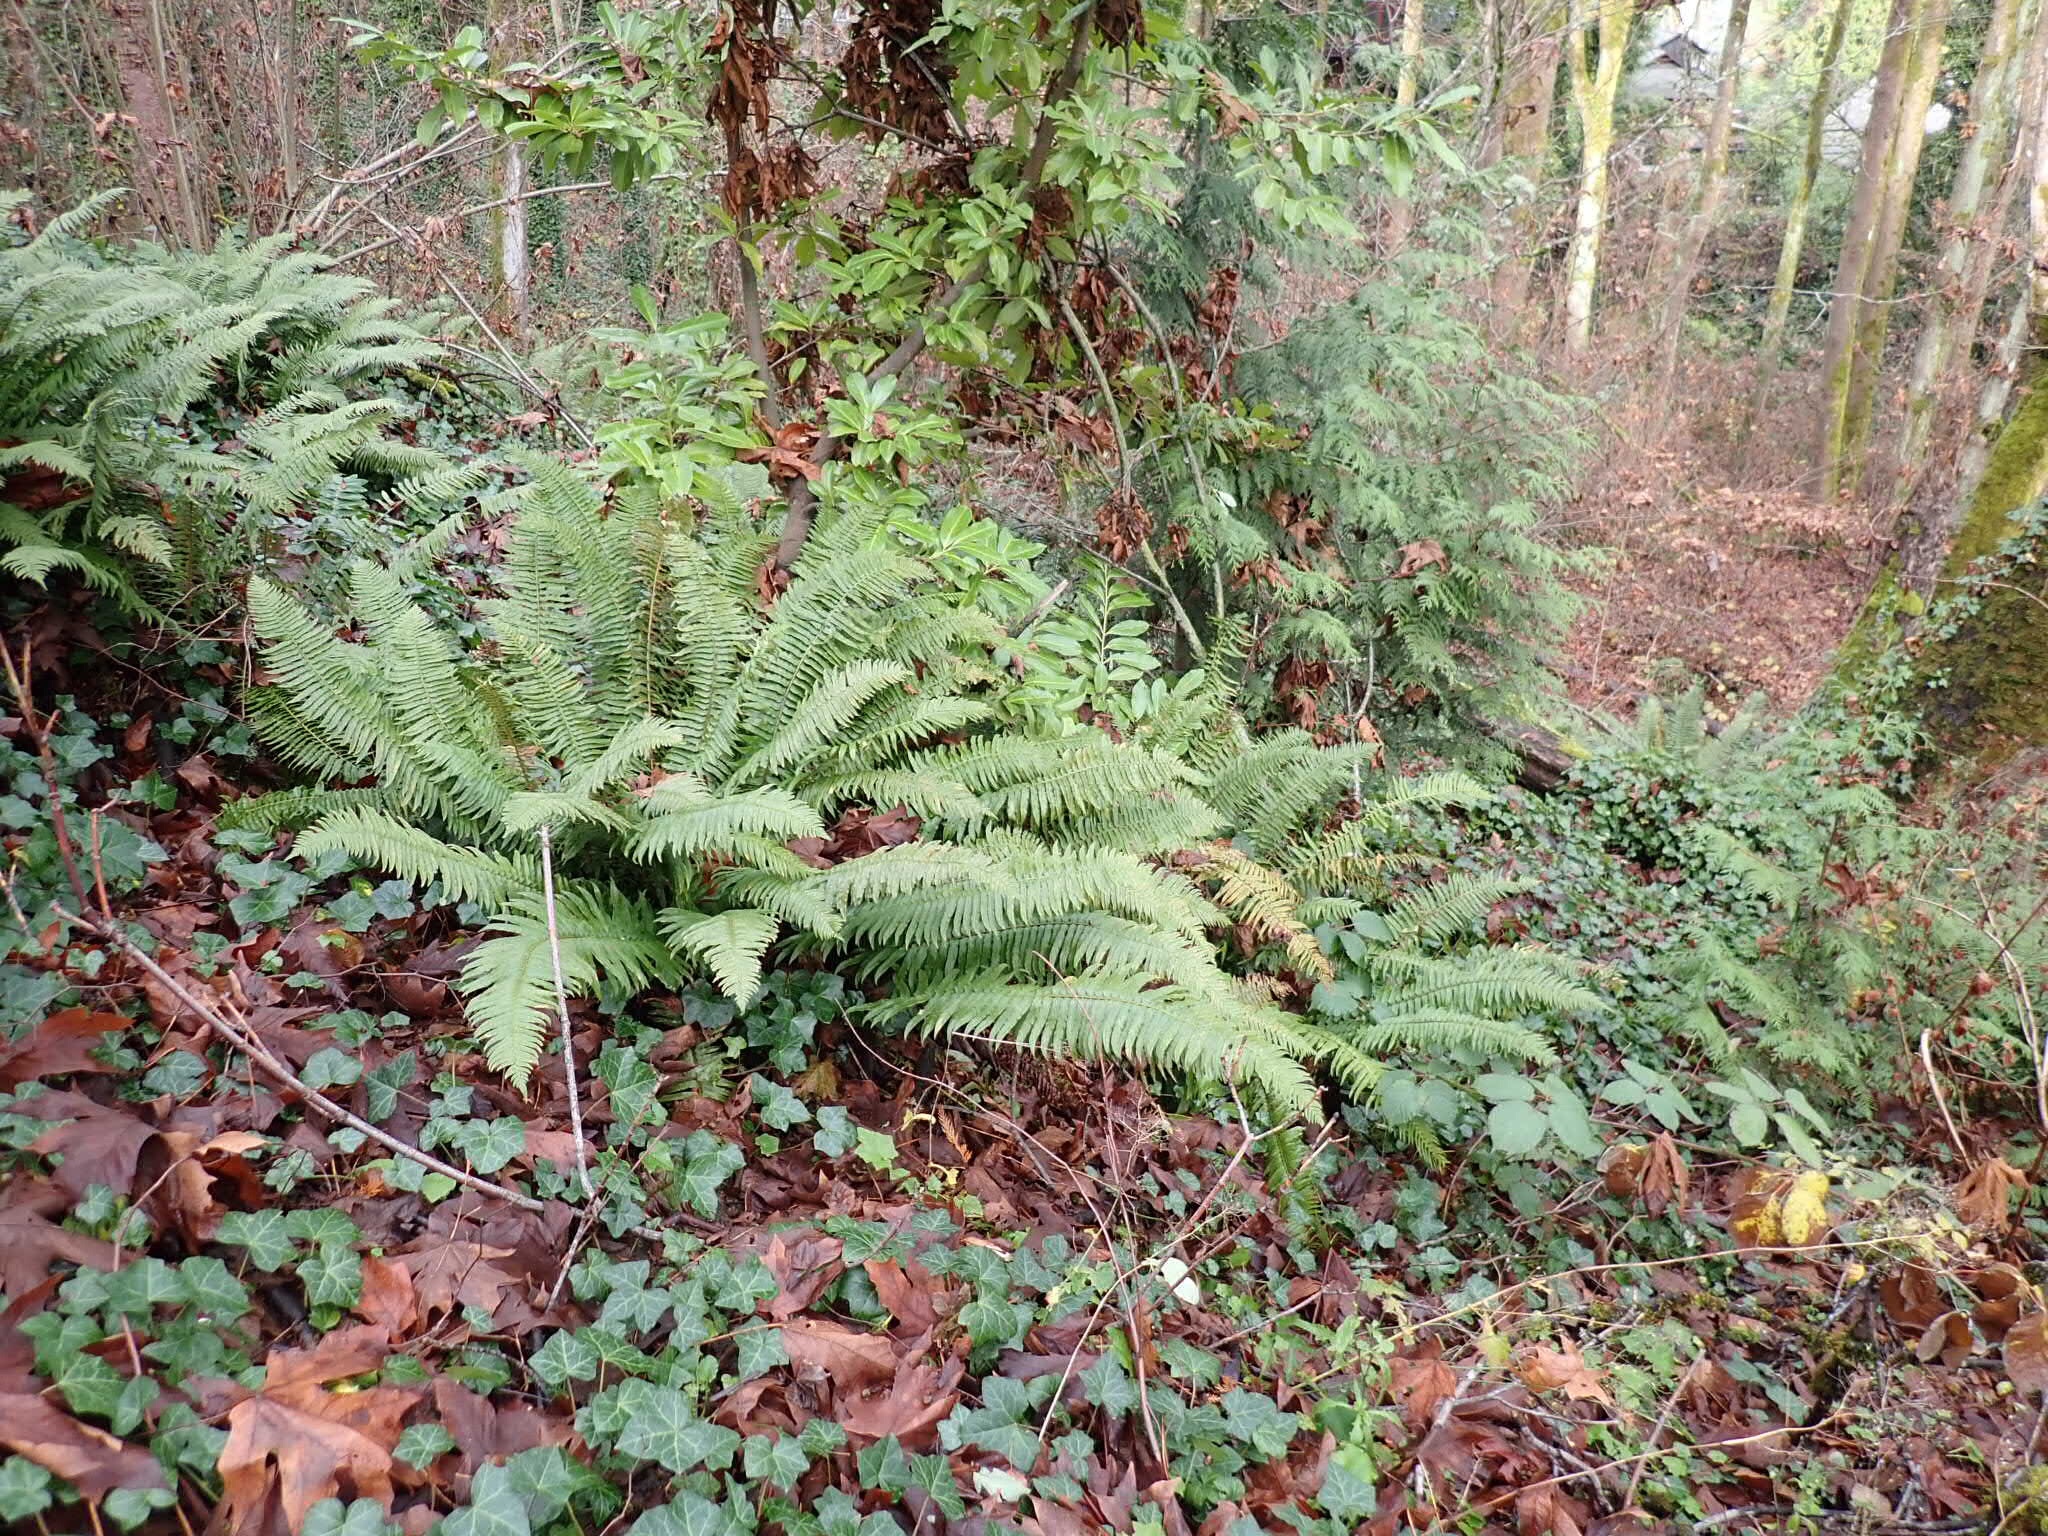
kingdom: Plantae
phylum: Tracheophyta
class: Polypodiopsida
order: Polypodiales
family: Dryopteridaceae
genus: Polystichum
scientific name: Polystichum munitum
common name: Western sword-fern
